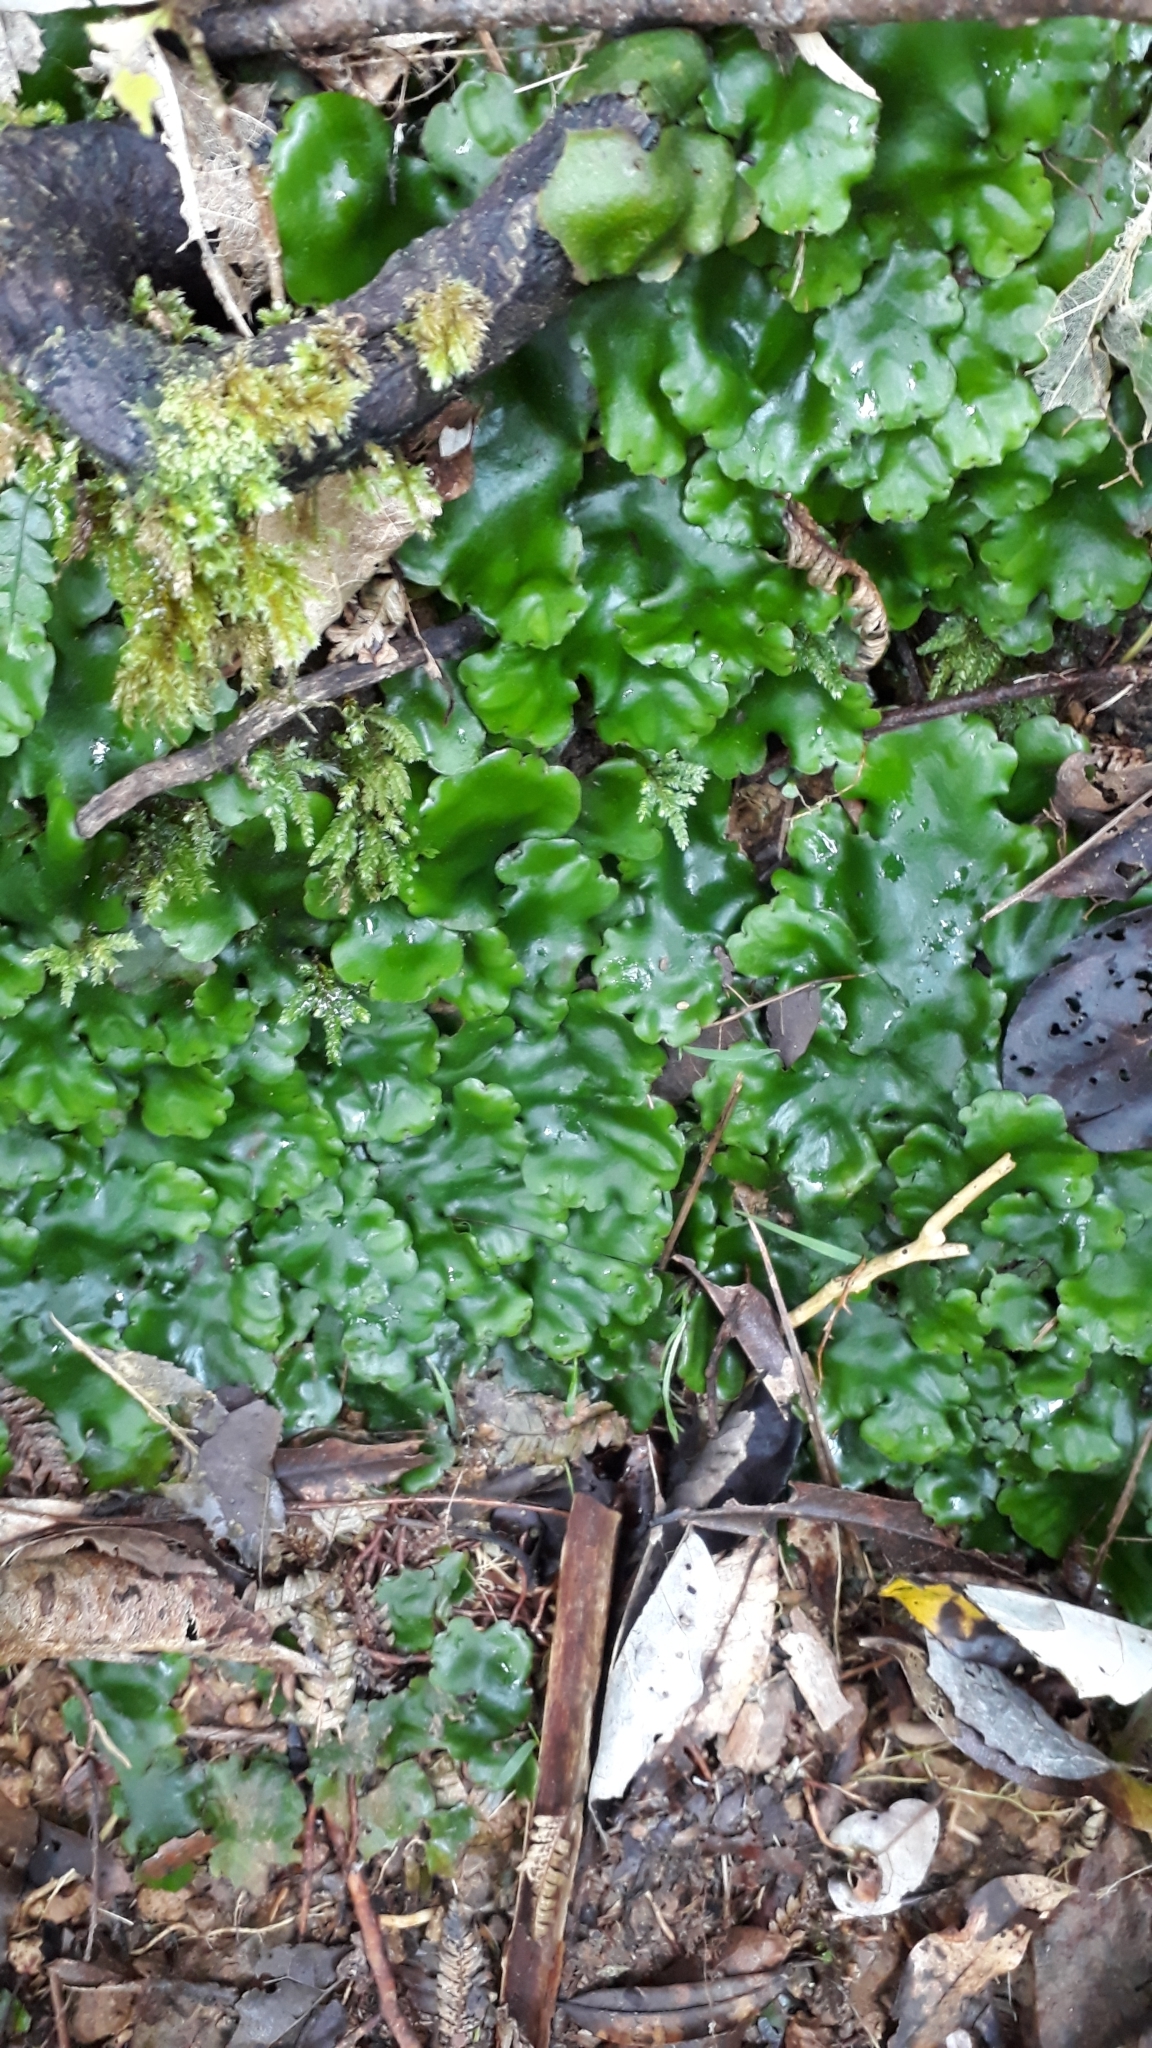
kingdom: Plantae
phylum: Marchantiophyta
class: Marchantiopsida
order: Marchantiales
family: Monocleaceae
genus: Monoclea
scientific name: Monoclea forsteri
